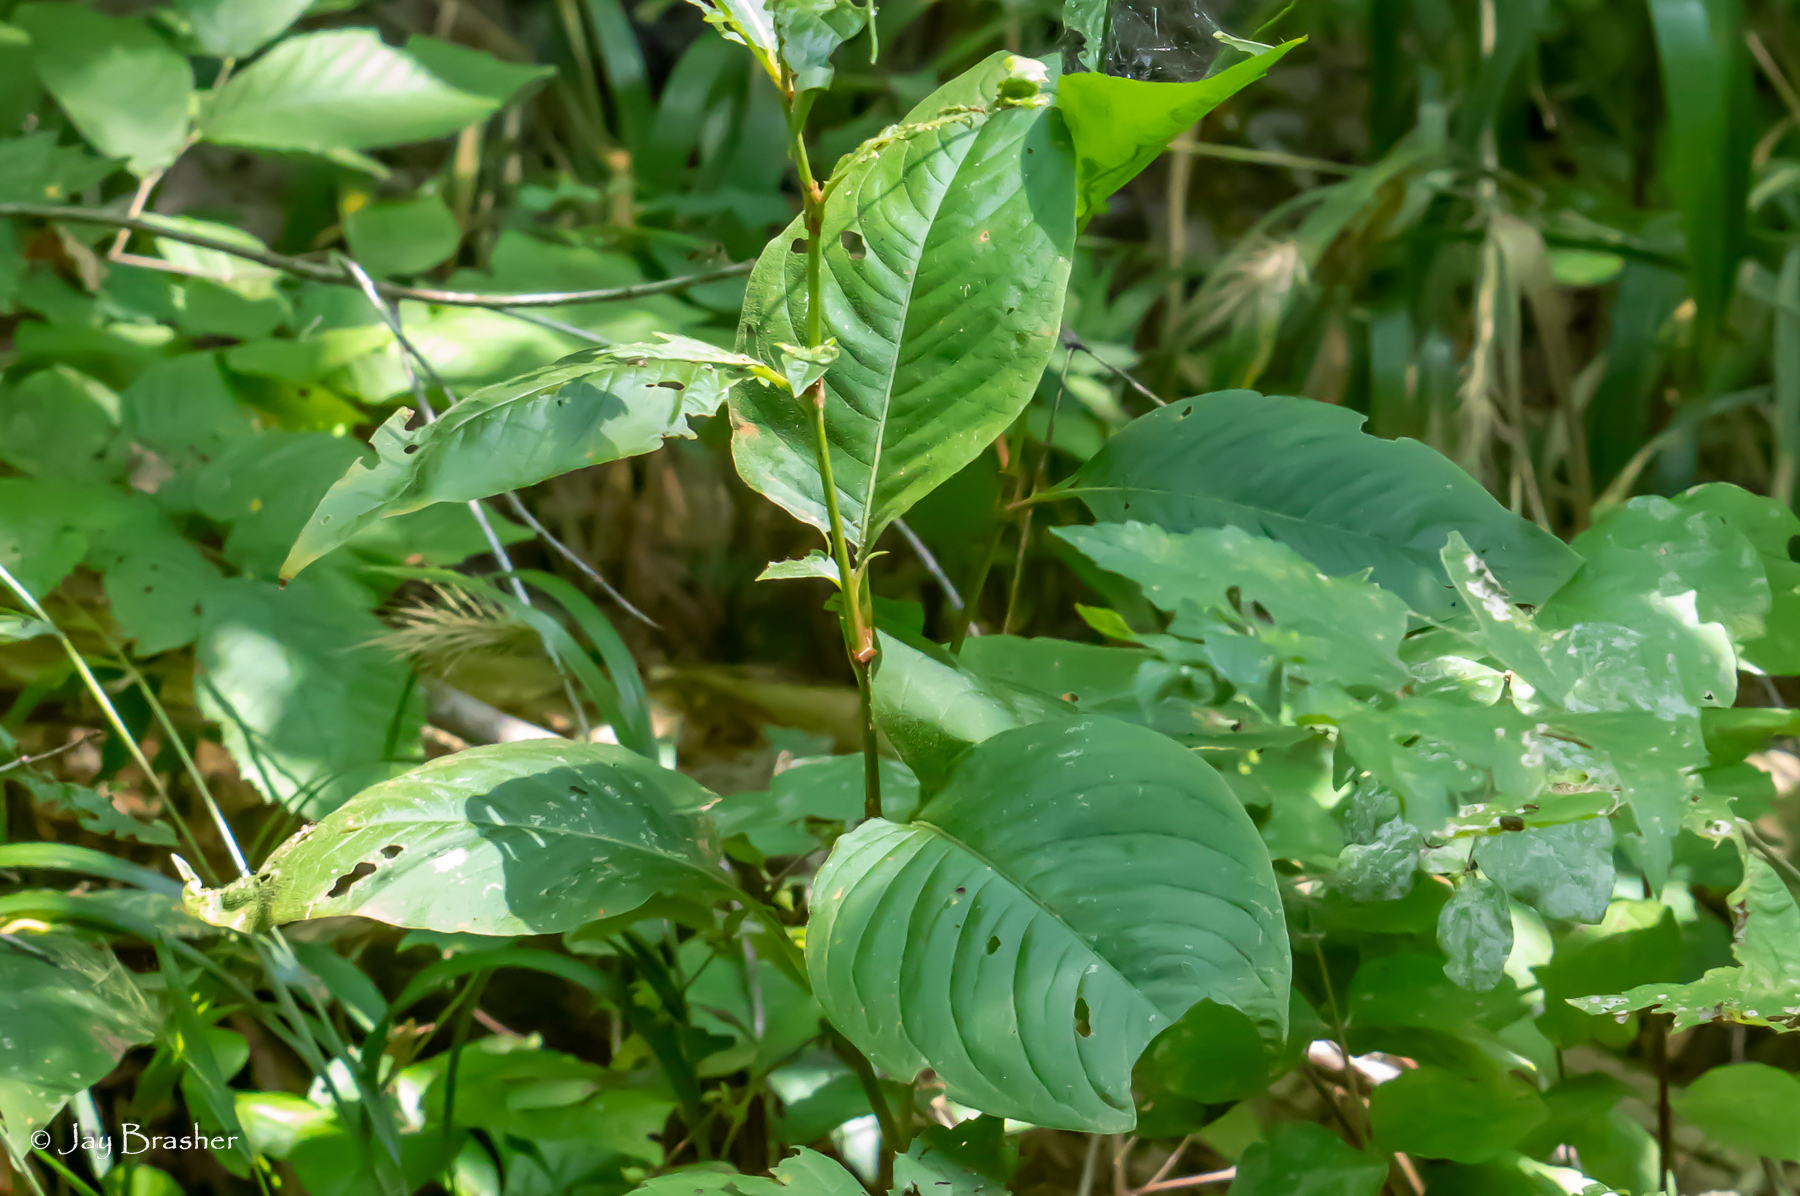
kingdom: Plantae
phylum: Tracheophyta
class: Magnoliopsida
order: Caryophyllales
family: Polygonaceae
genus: Persicaria
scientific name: Persicaria virginiana
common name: Jumpseed
